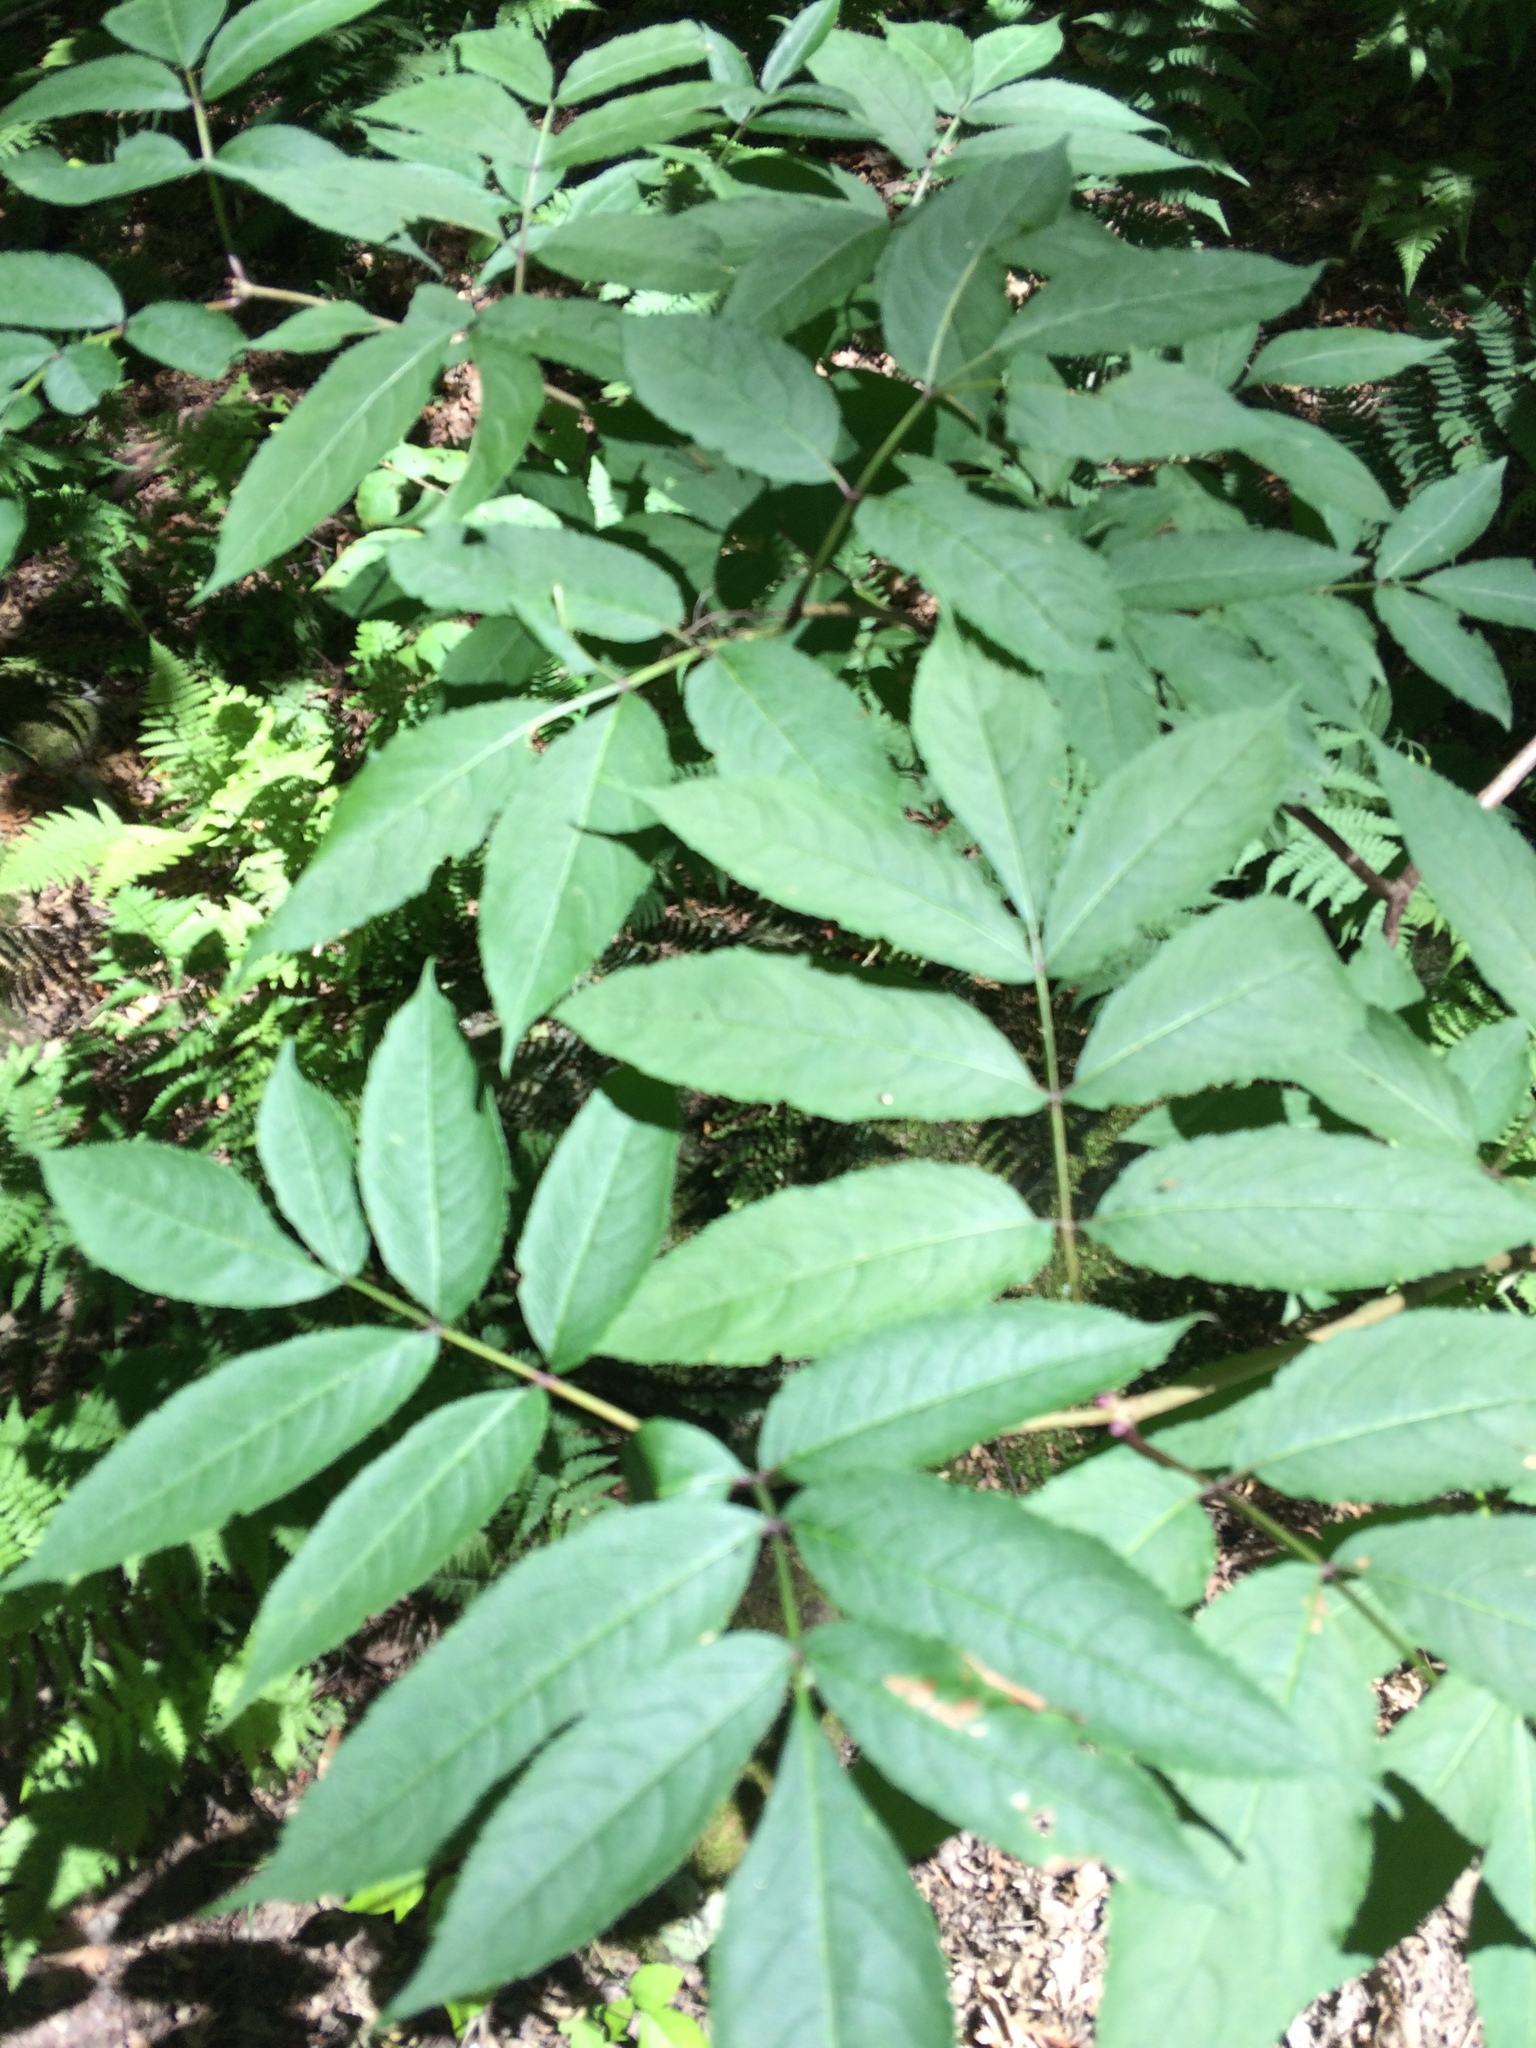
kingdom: Plantae
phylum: Tracheophyta
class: Magnoliopsida
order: Dipsacales
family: Viburnaceae
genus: Sambucus
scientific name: Sambucus racemosa
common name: Red-berried elder
